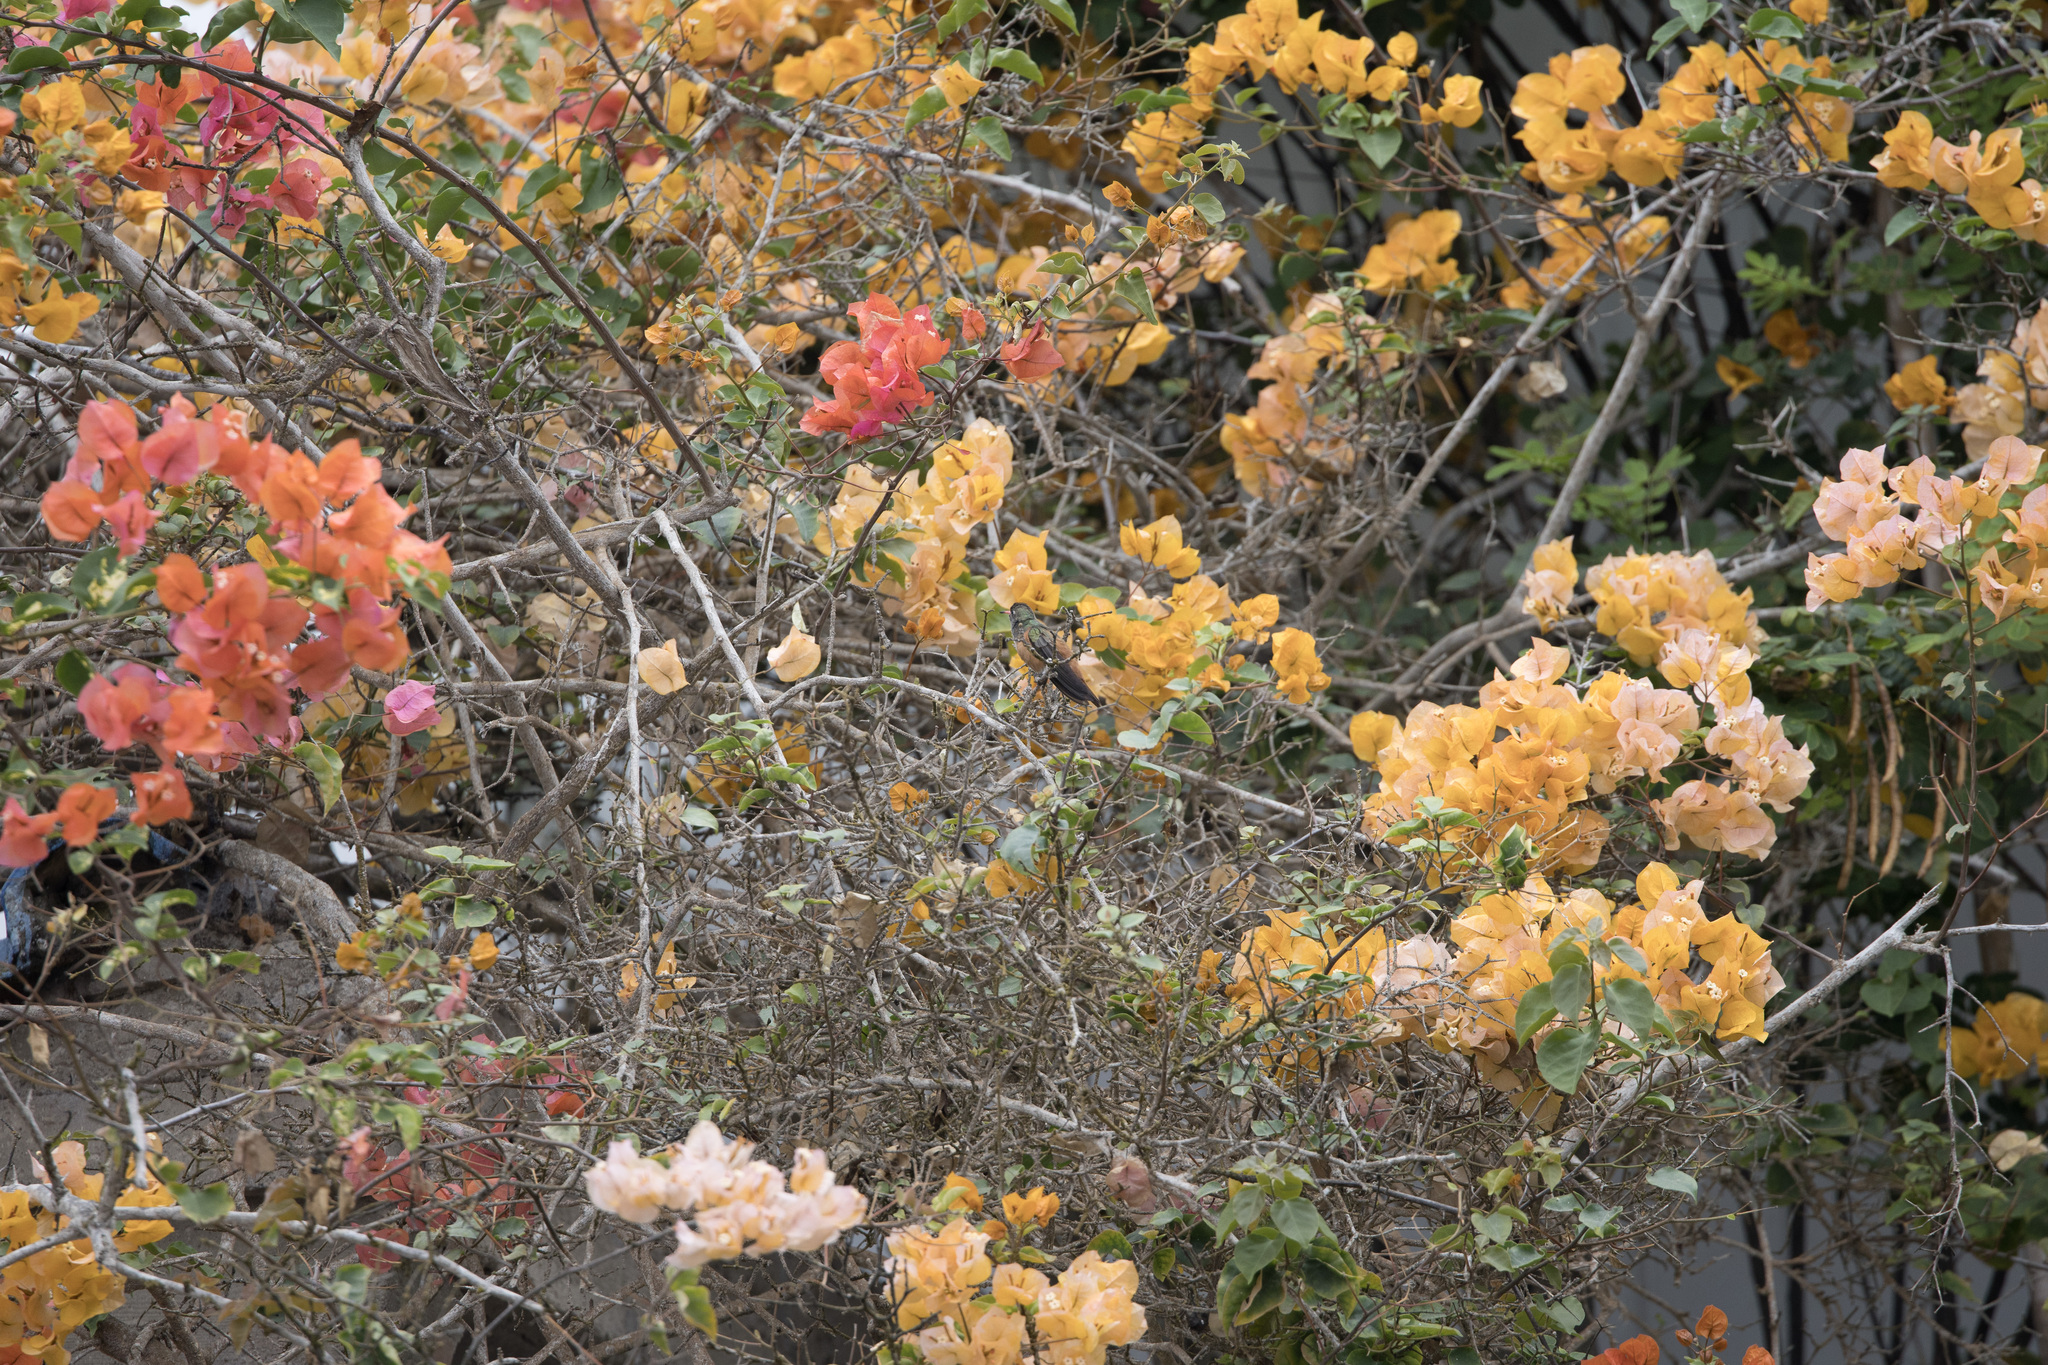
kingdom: Animalia
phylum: Chordata
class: Aves
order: Apodiformes
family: Trochilidae
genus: Amazilis
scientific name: Amazilis amazilia
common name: Amazilia hummingbird
